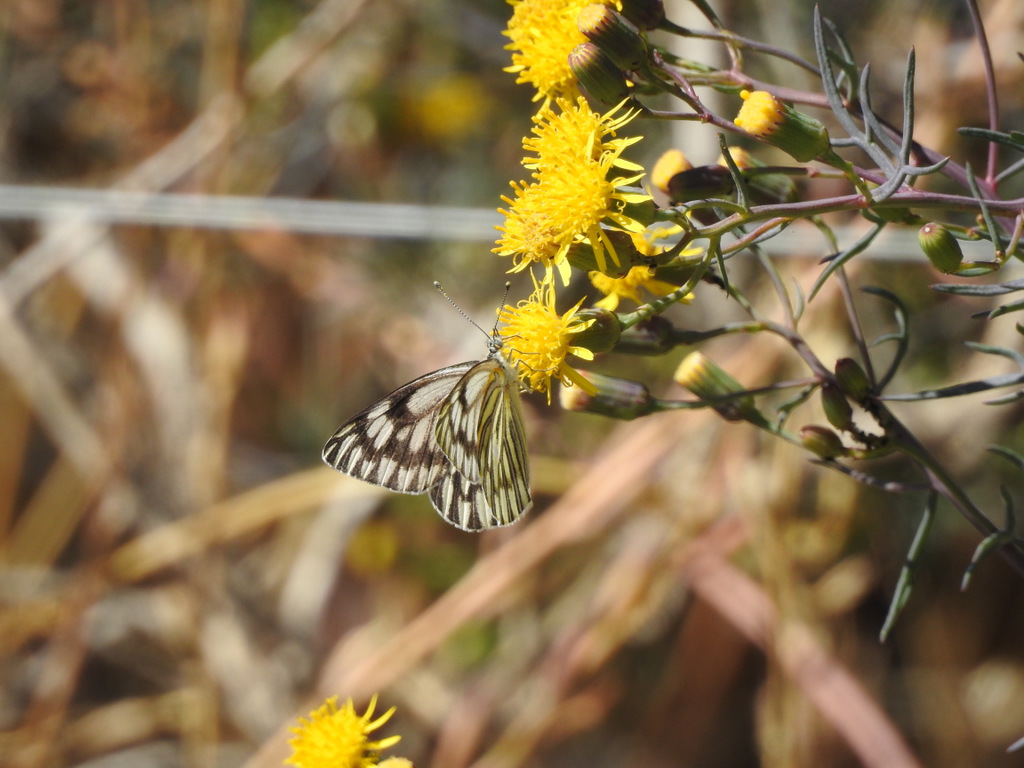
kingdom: Animalia
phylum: Arthropoda
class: Insecta
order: Lepidoptera
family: Pieridae
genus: Tatochila
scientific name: Tatochila mercedis
